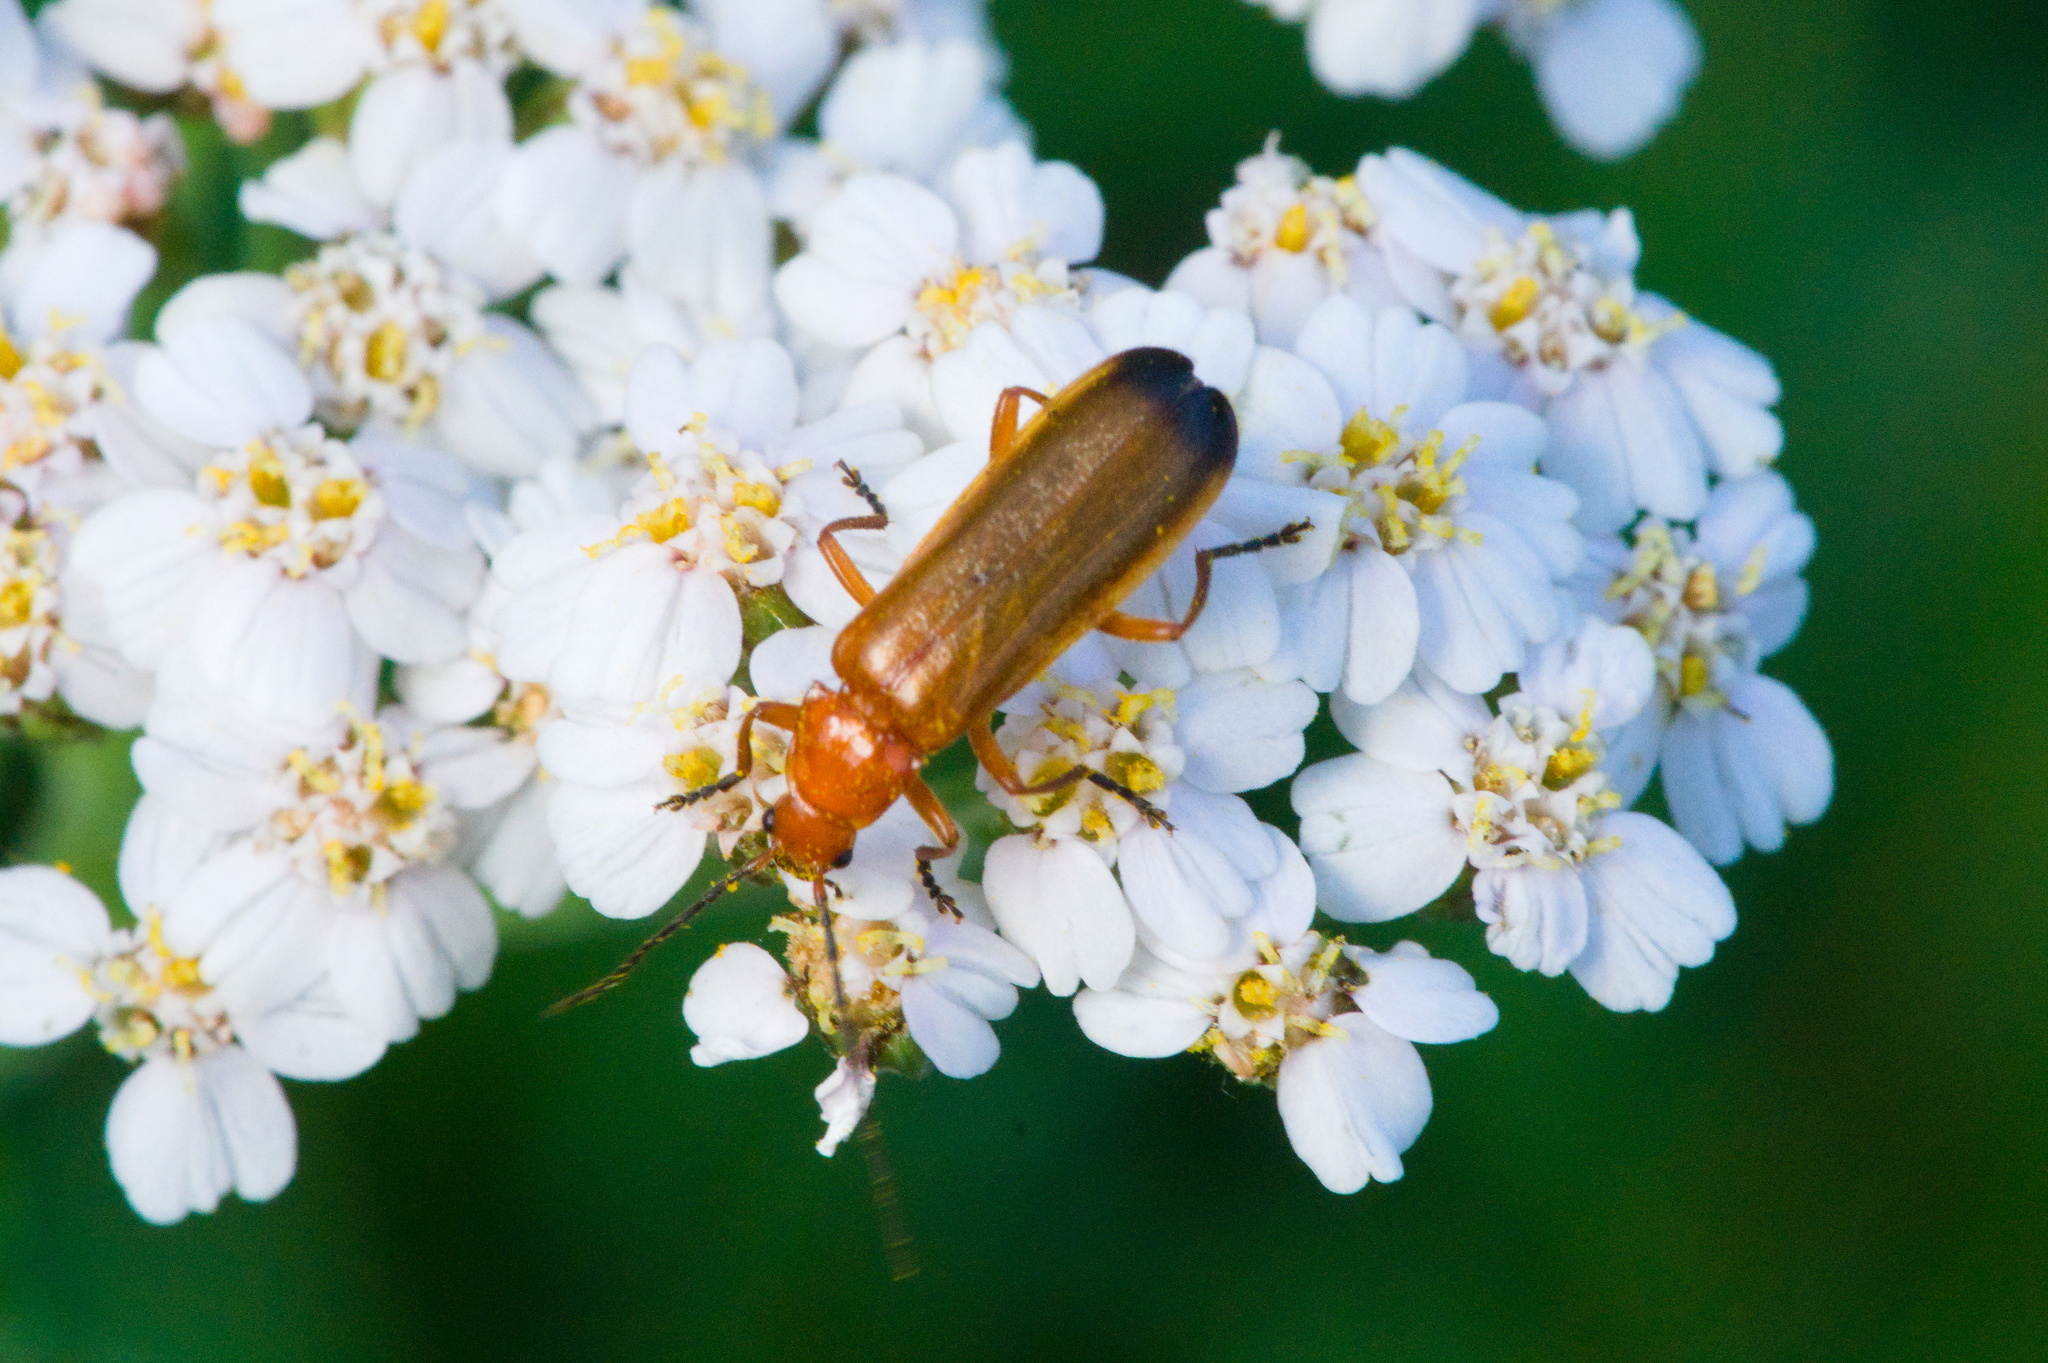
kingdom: Animalia
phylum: Arthropoda
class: Insecta
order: Coleoptera
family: Cantharidae
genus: Rhagonycha
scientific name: Rhagonycha fulva
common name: Common red soldier beetle
